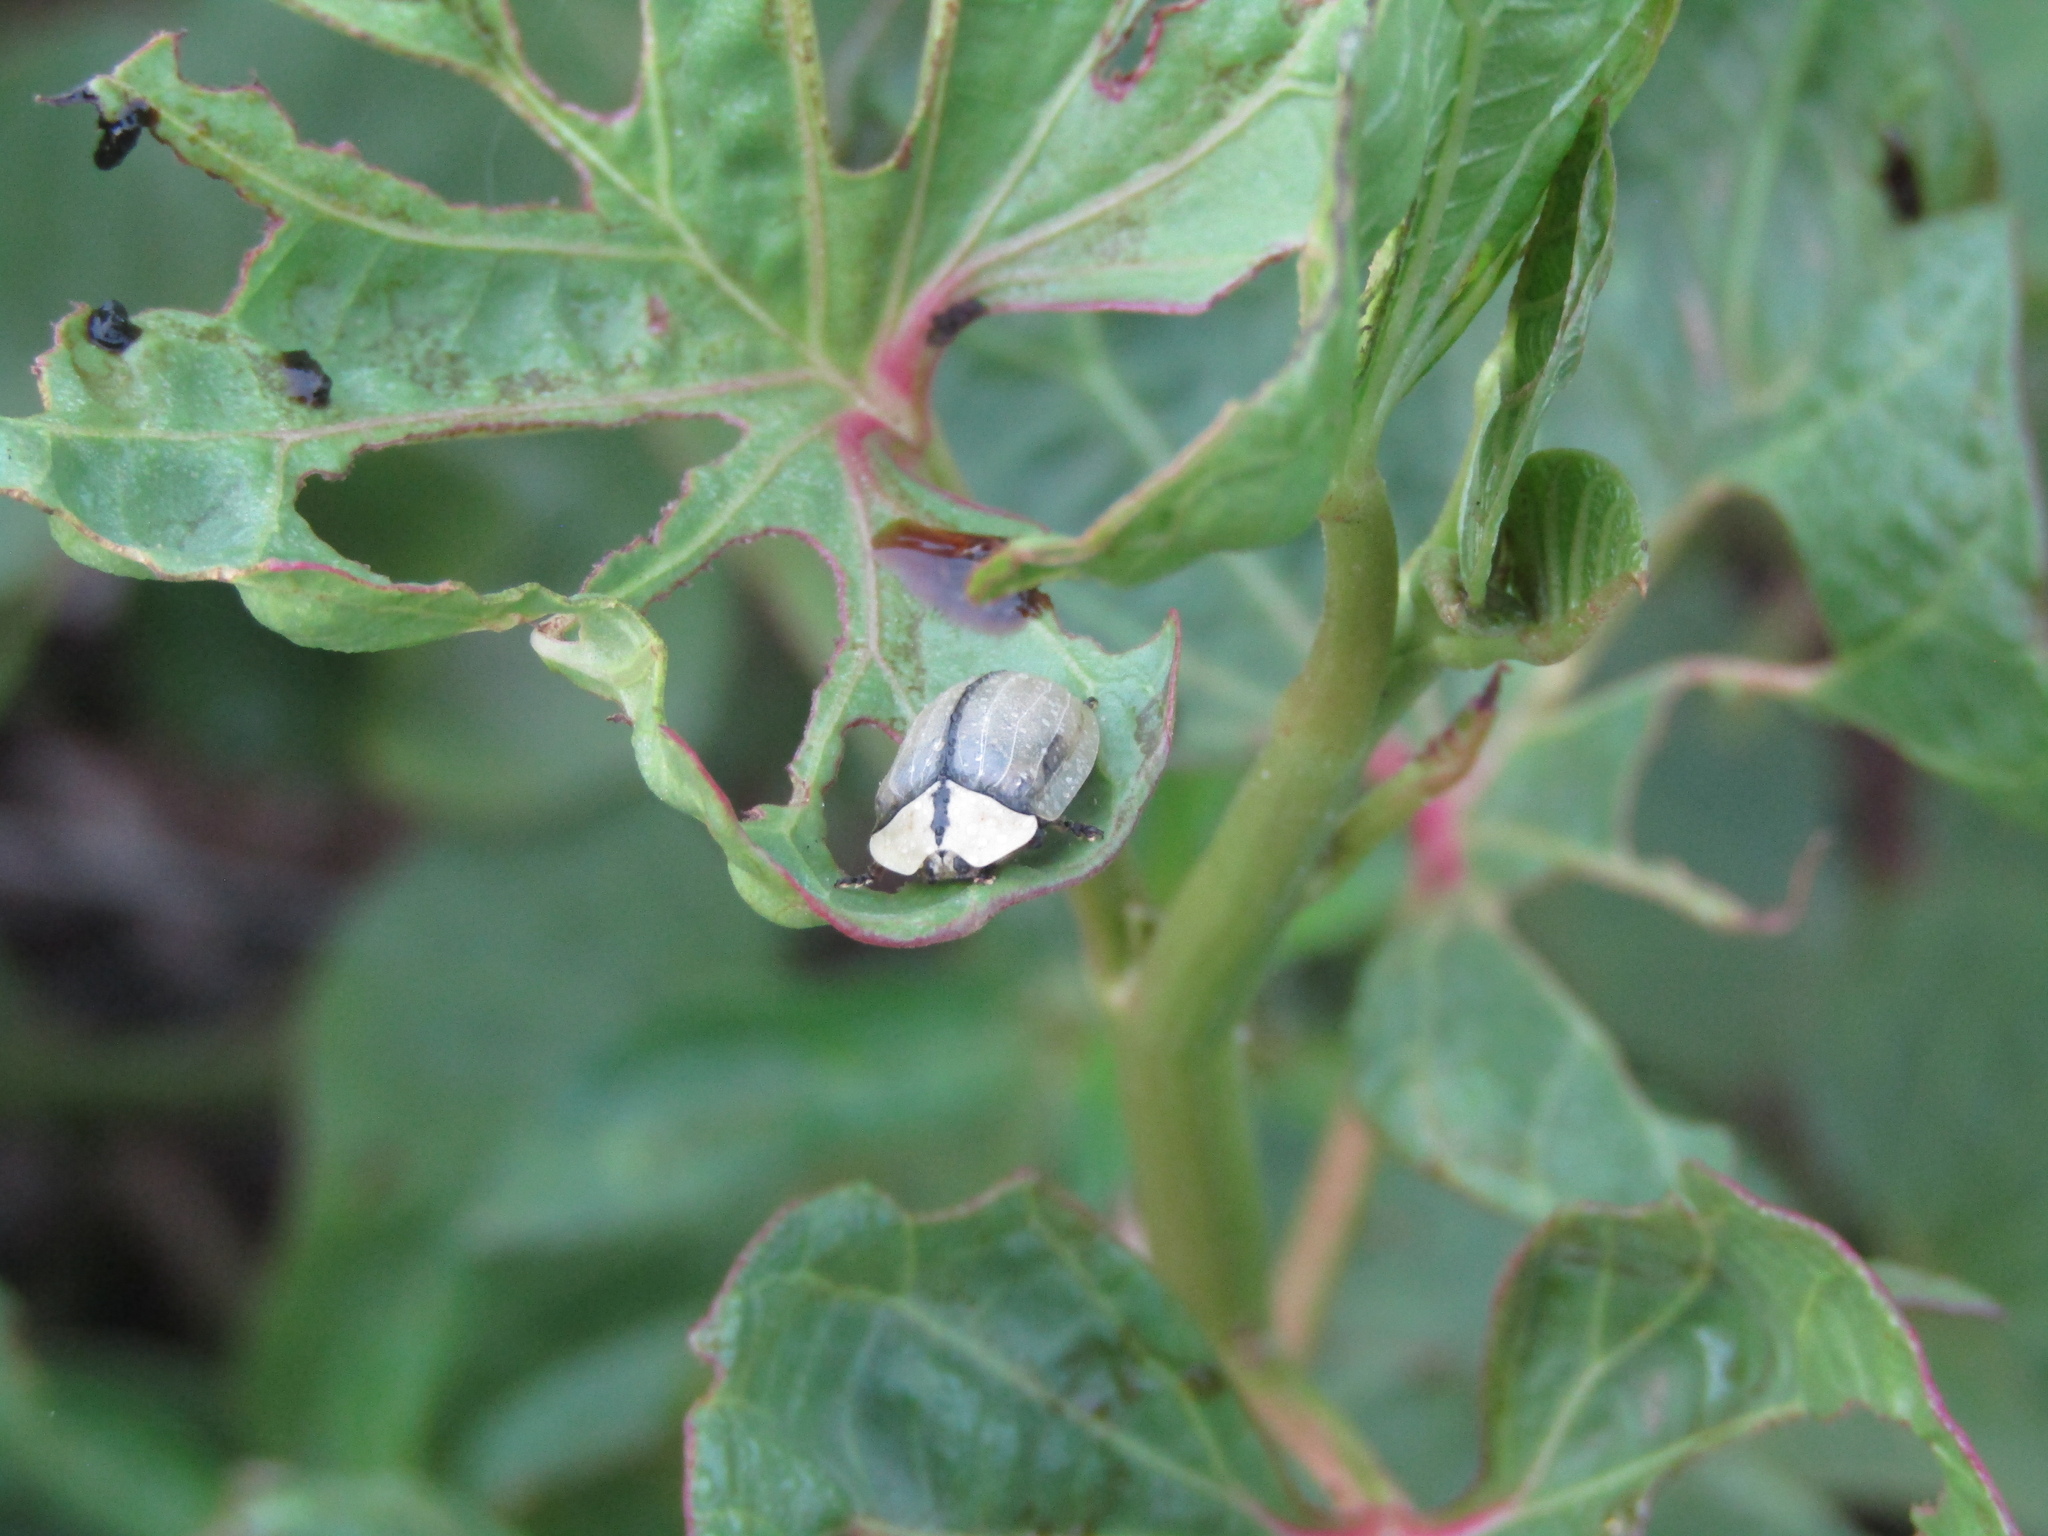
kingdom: Animalia
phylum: Arthropoda
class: Insecta
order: Coleoptera
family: Chrysomelidae
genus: Zatrephina
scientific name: Zatrephina lineata
